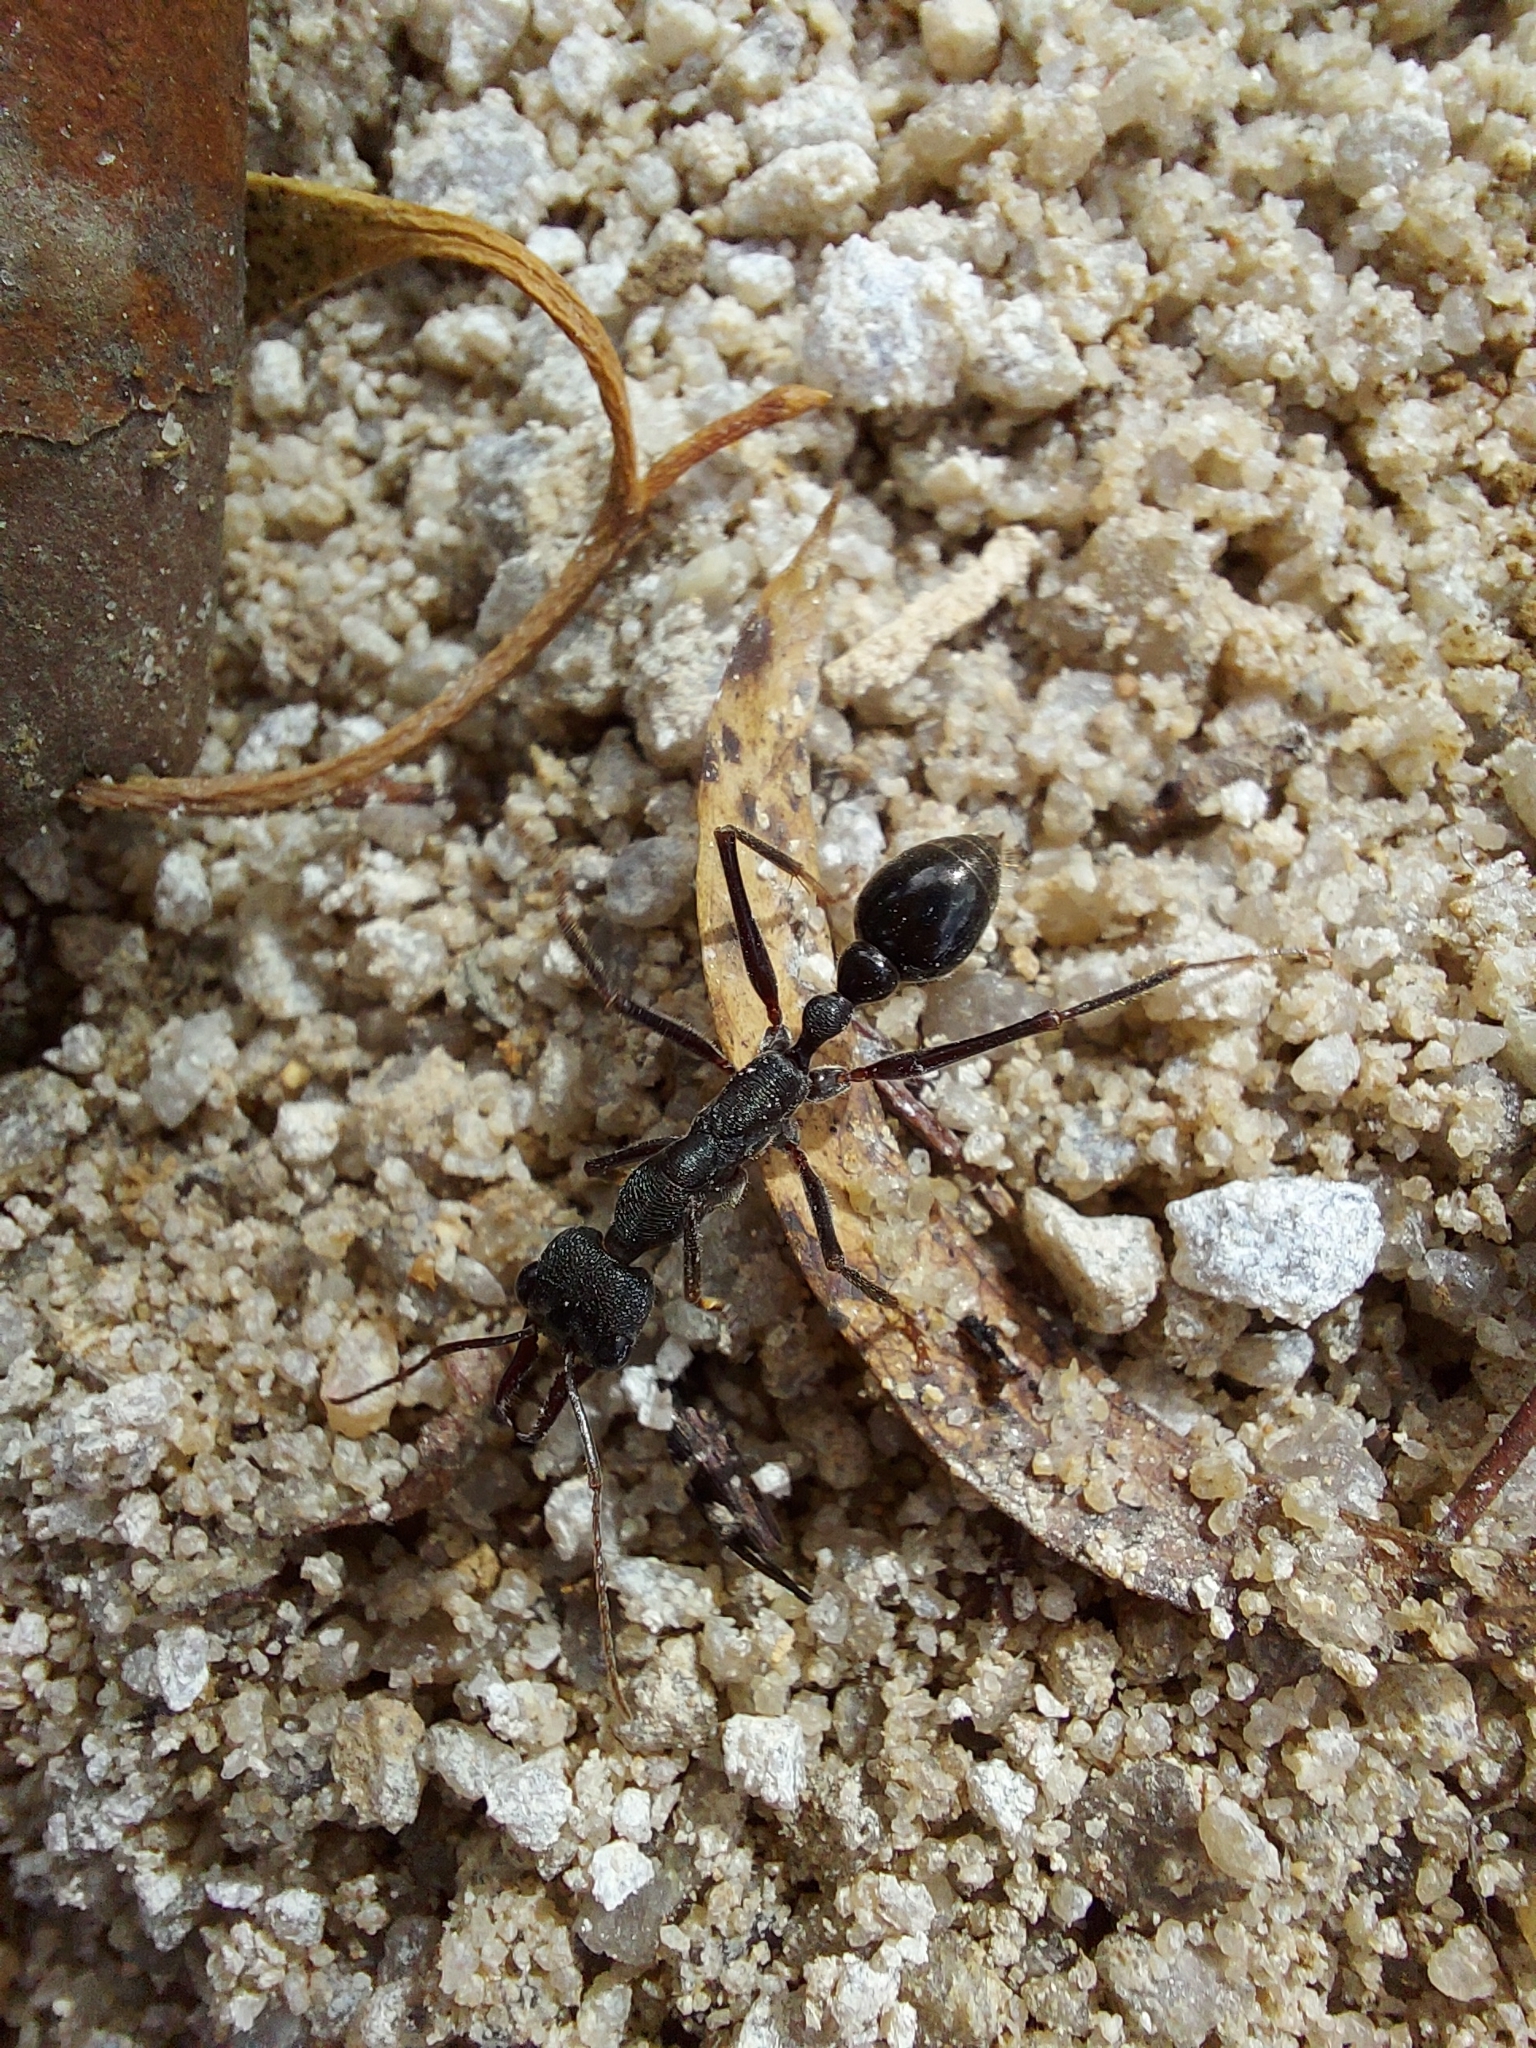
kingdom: Animalia
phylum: Arthropoda
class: Insecta
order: Hymenoptera
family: Formicidae
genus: Myrmecia
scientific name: Myrmecia pyriformis
